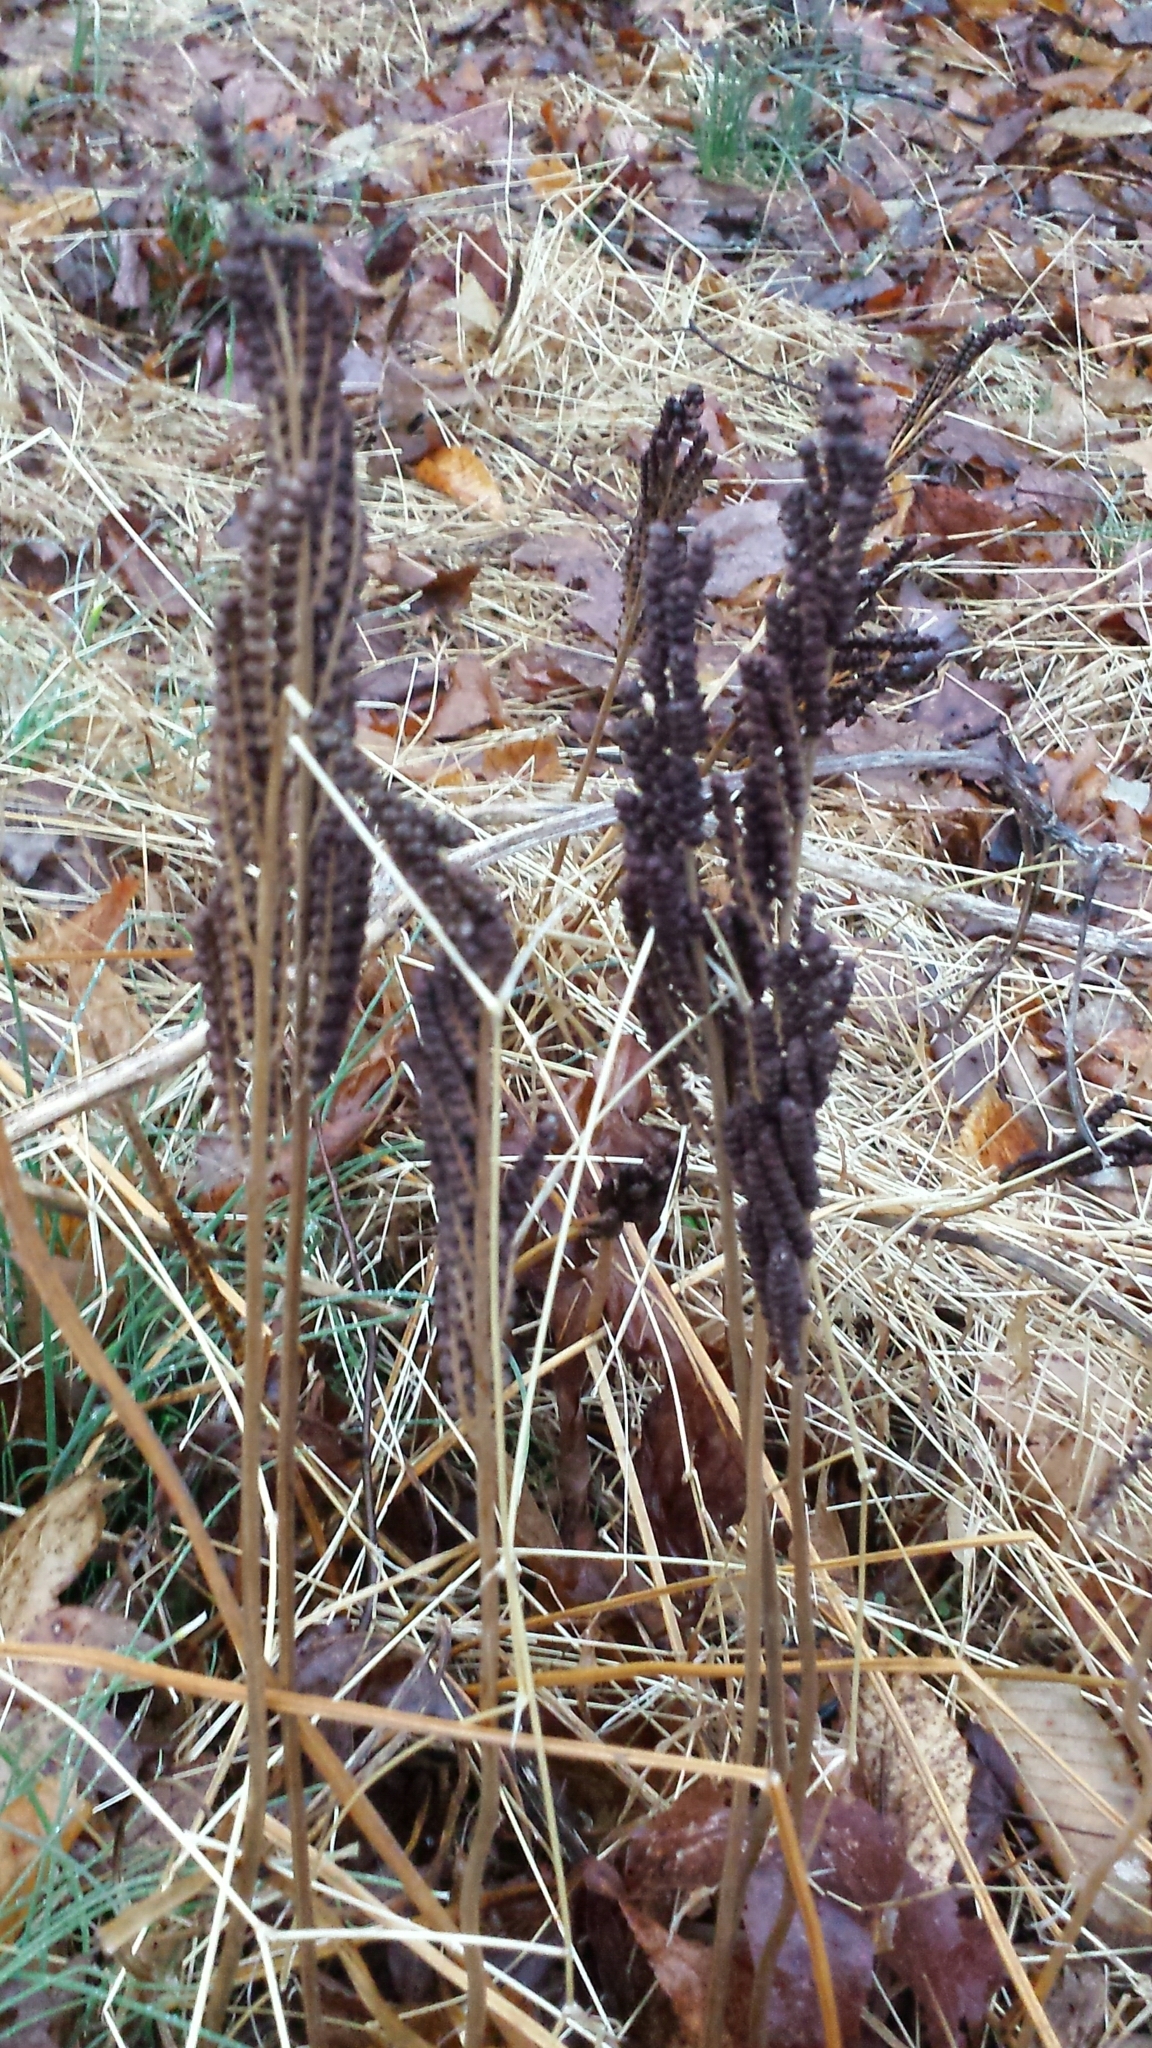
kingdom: Plantae
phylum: Tracheophyta
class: Polypodiopsida
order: Polypodiales
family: Onocleaceae
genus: Onoclea
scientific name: Onoclea sensibilis
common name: Sensitive fern
